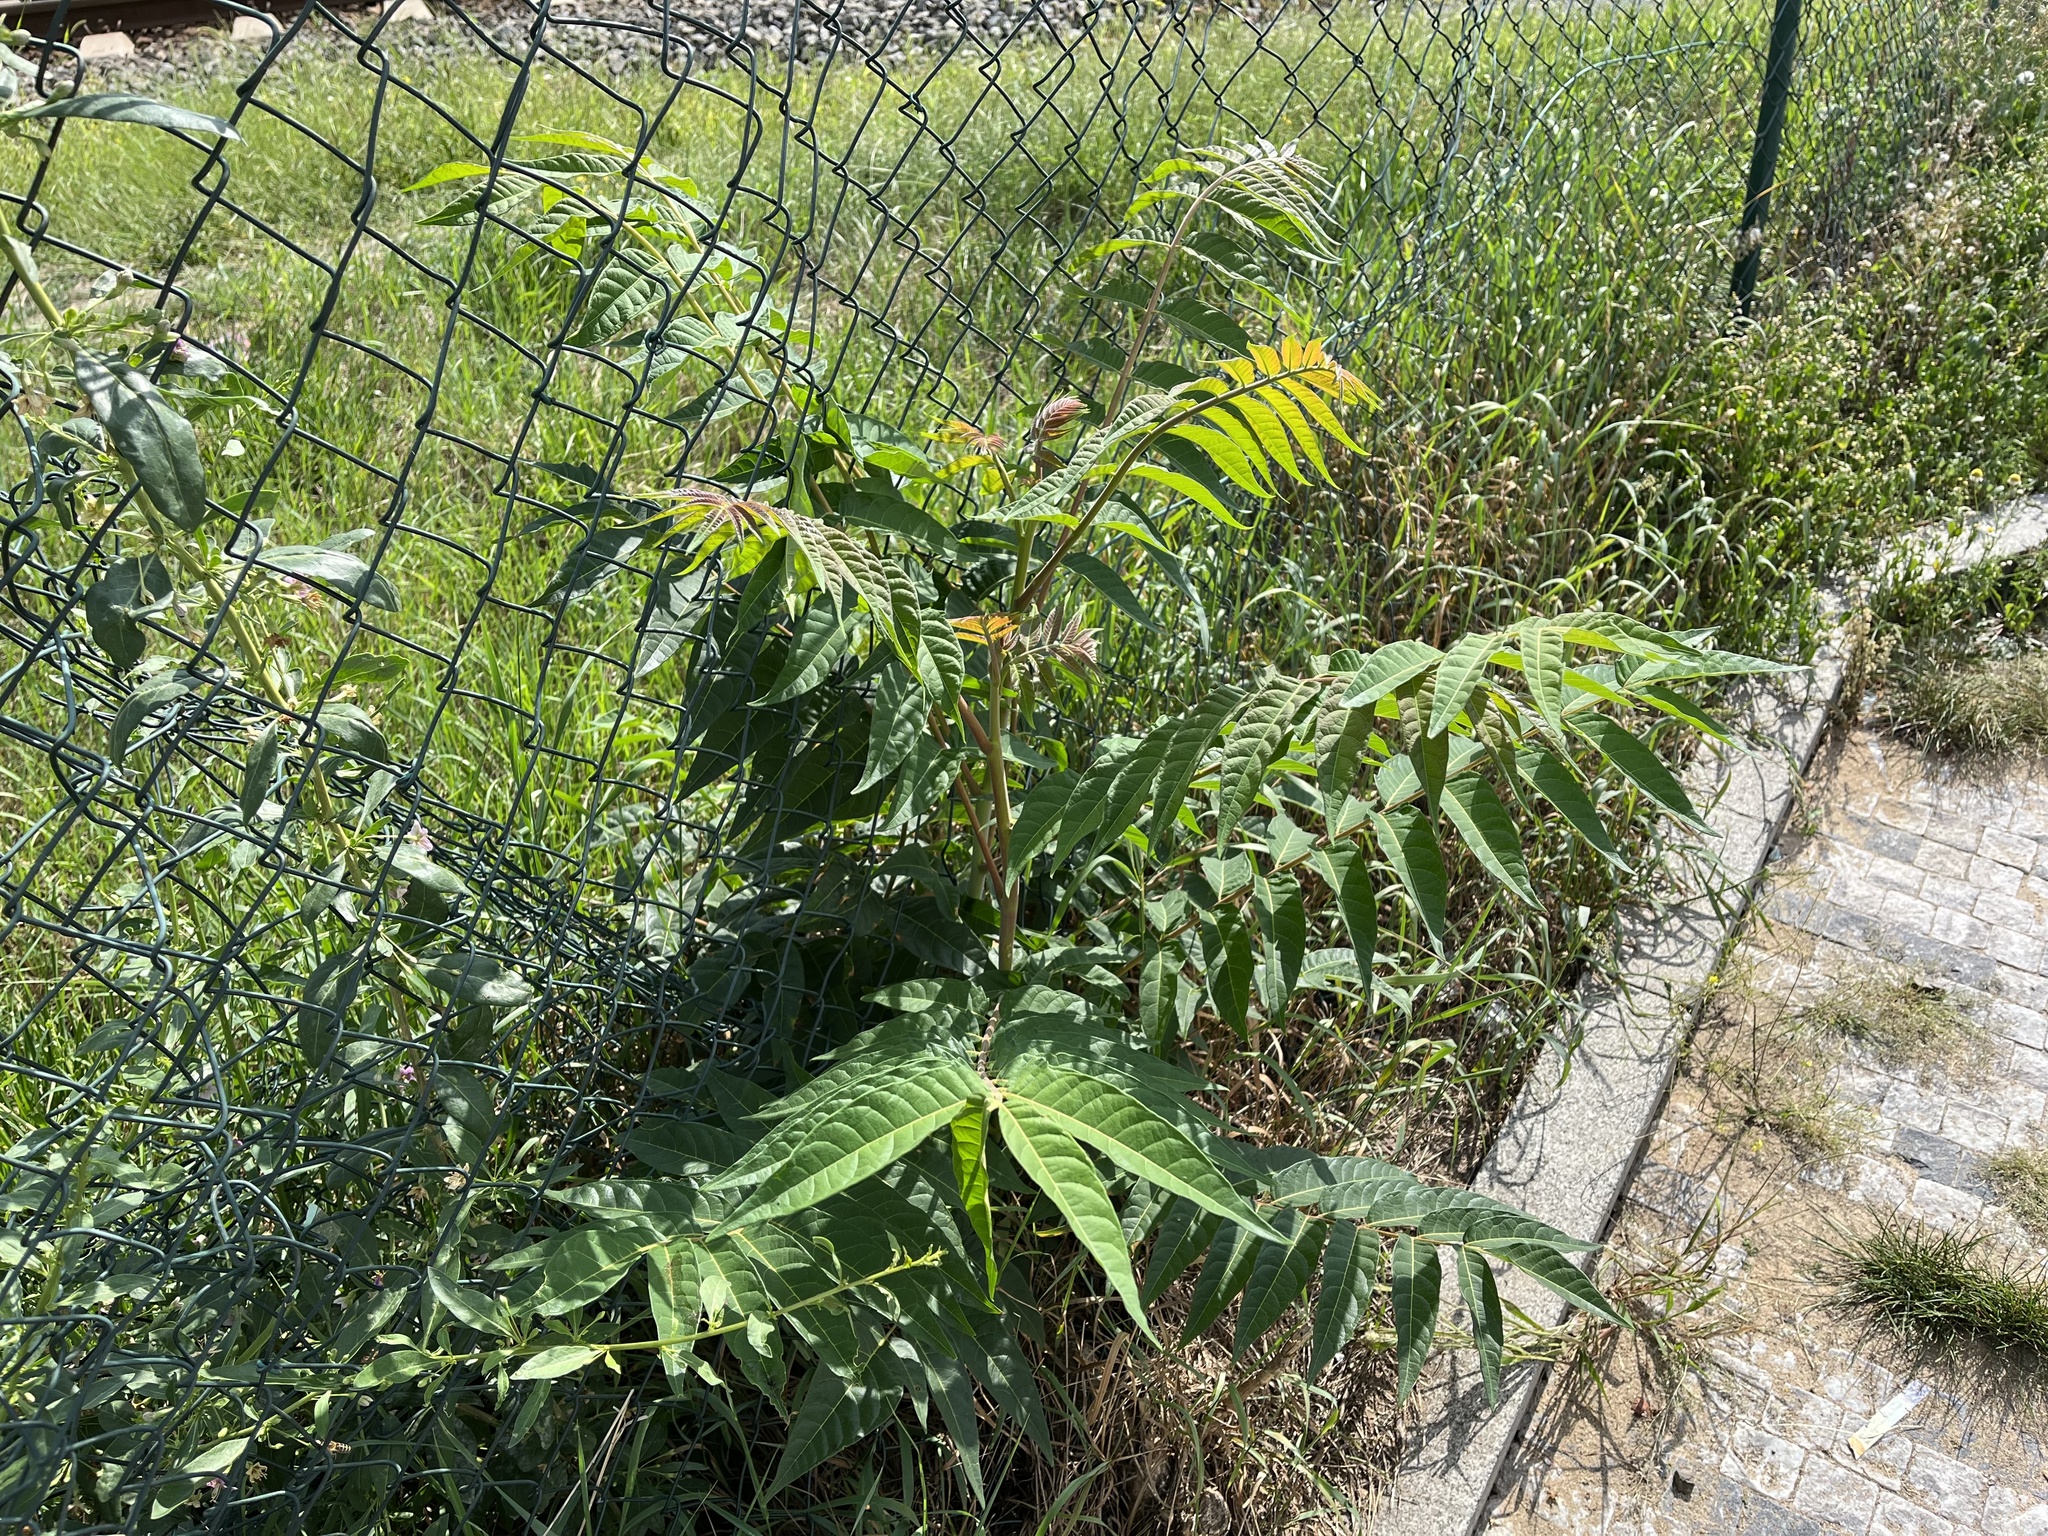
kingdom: Plantae
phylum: Tracheophyta
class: Magnoliopsida
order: Sapindales
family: Simaroubaceae
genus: Ailanthus
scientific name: Ailanthus altissima
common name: Tree-of-heaven
